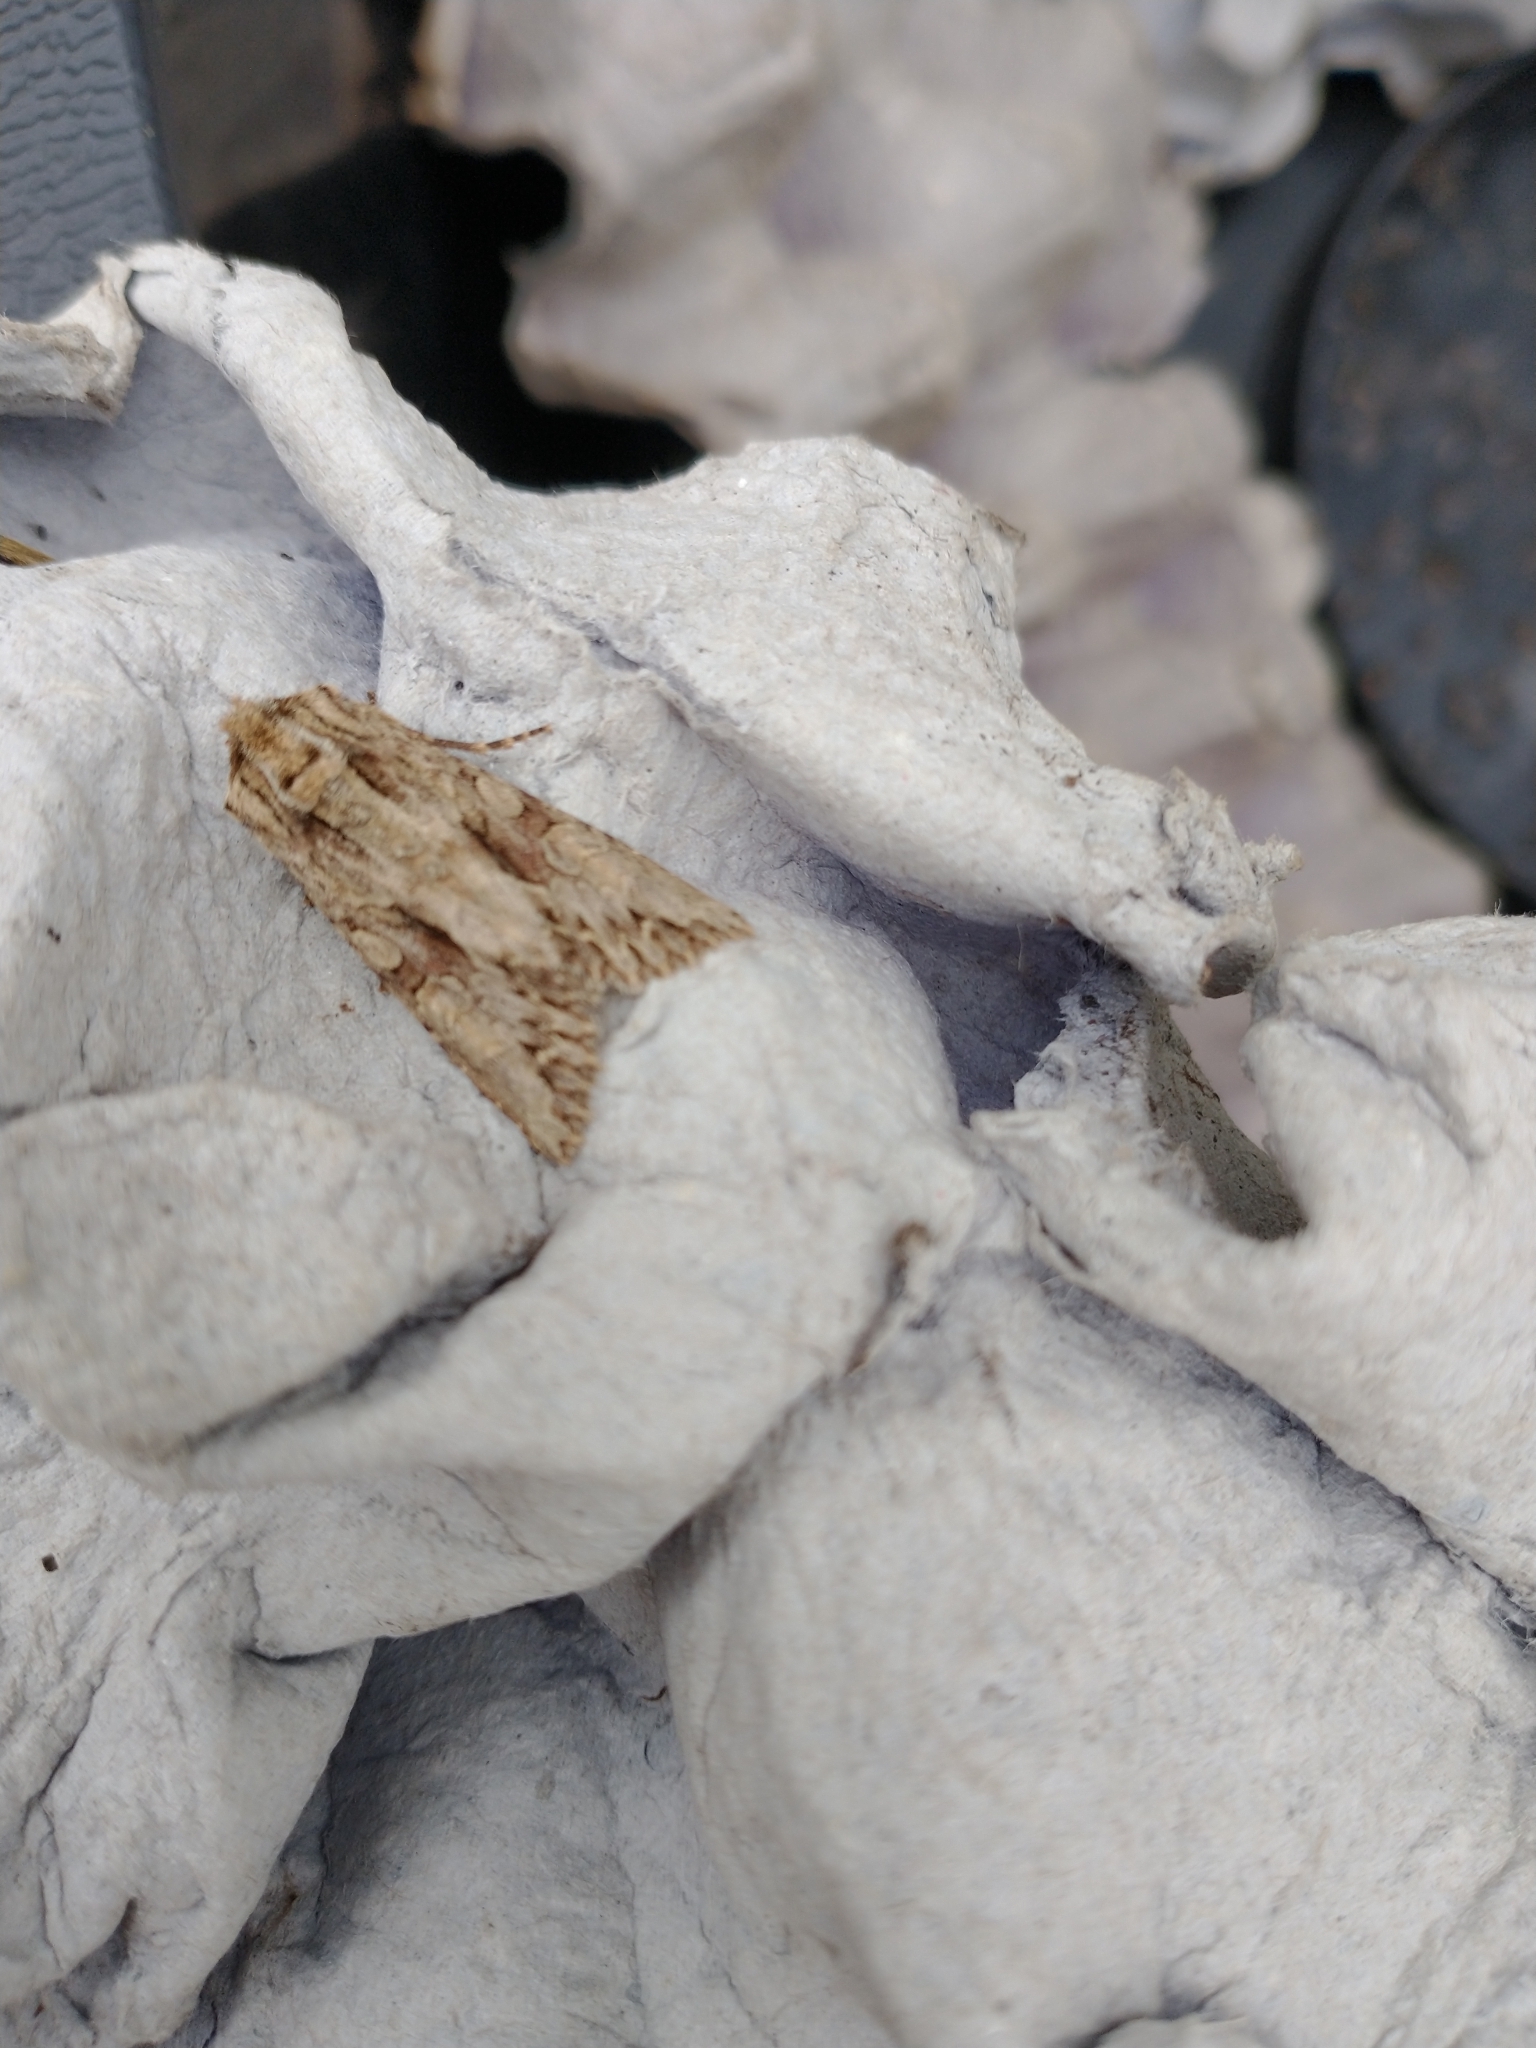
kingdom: Animalia
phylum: Arthropoda
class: Insecta
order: Lepidoptera
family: Noctuidae
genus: Apamea
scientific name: Apamea monoglypha
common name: Dark arches
